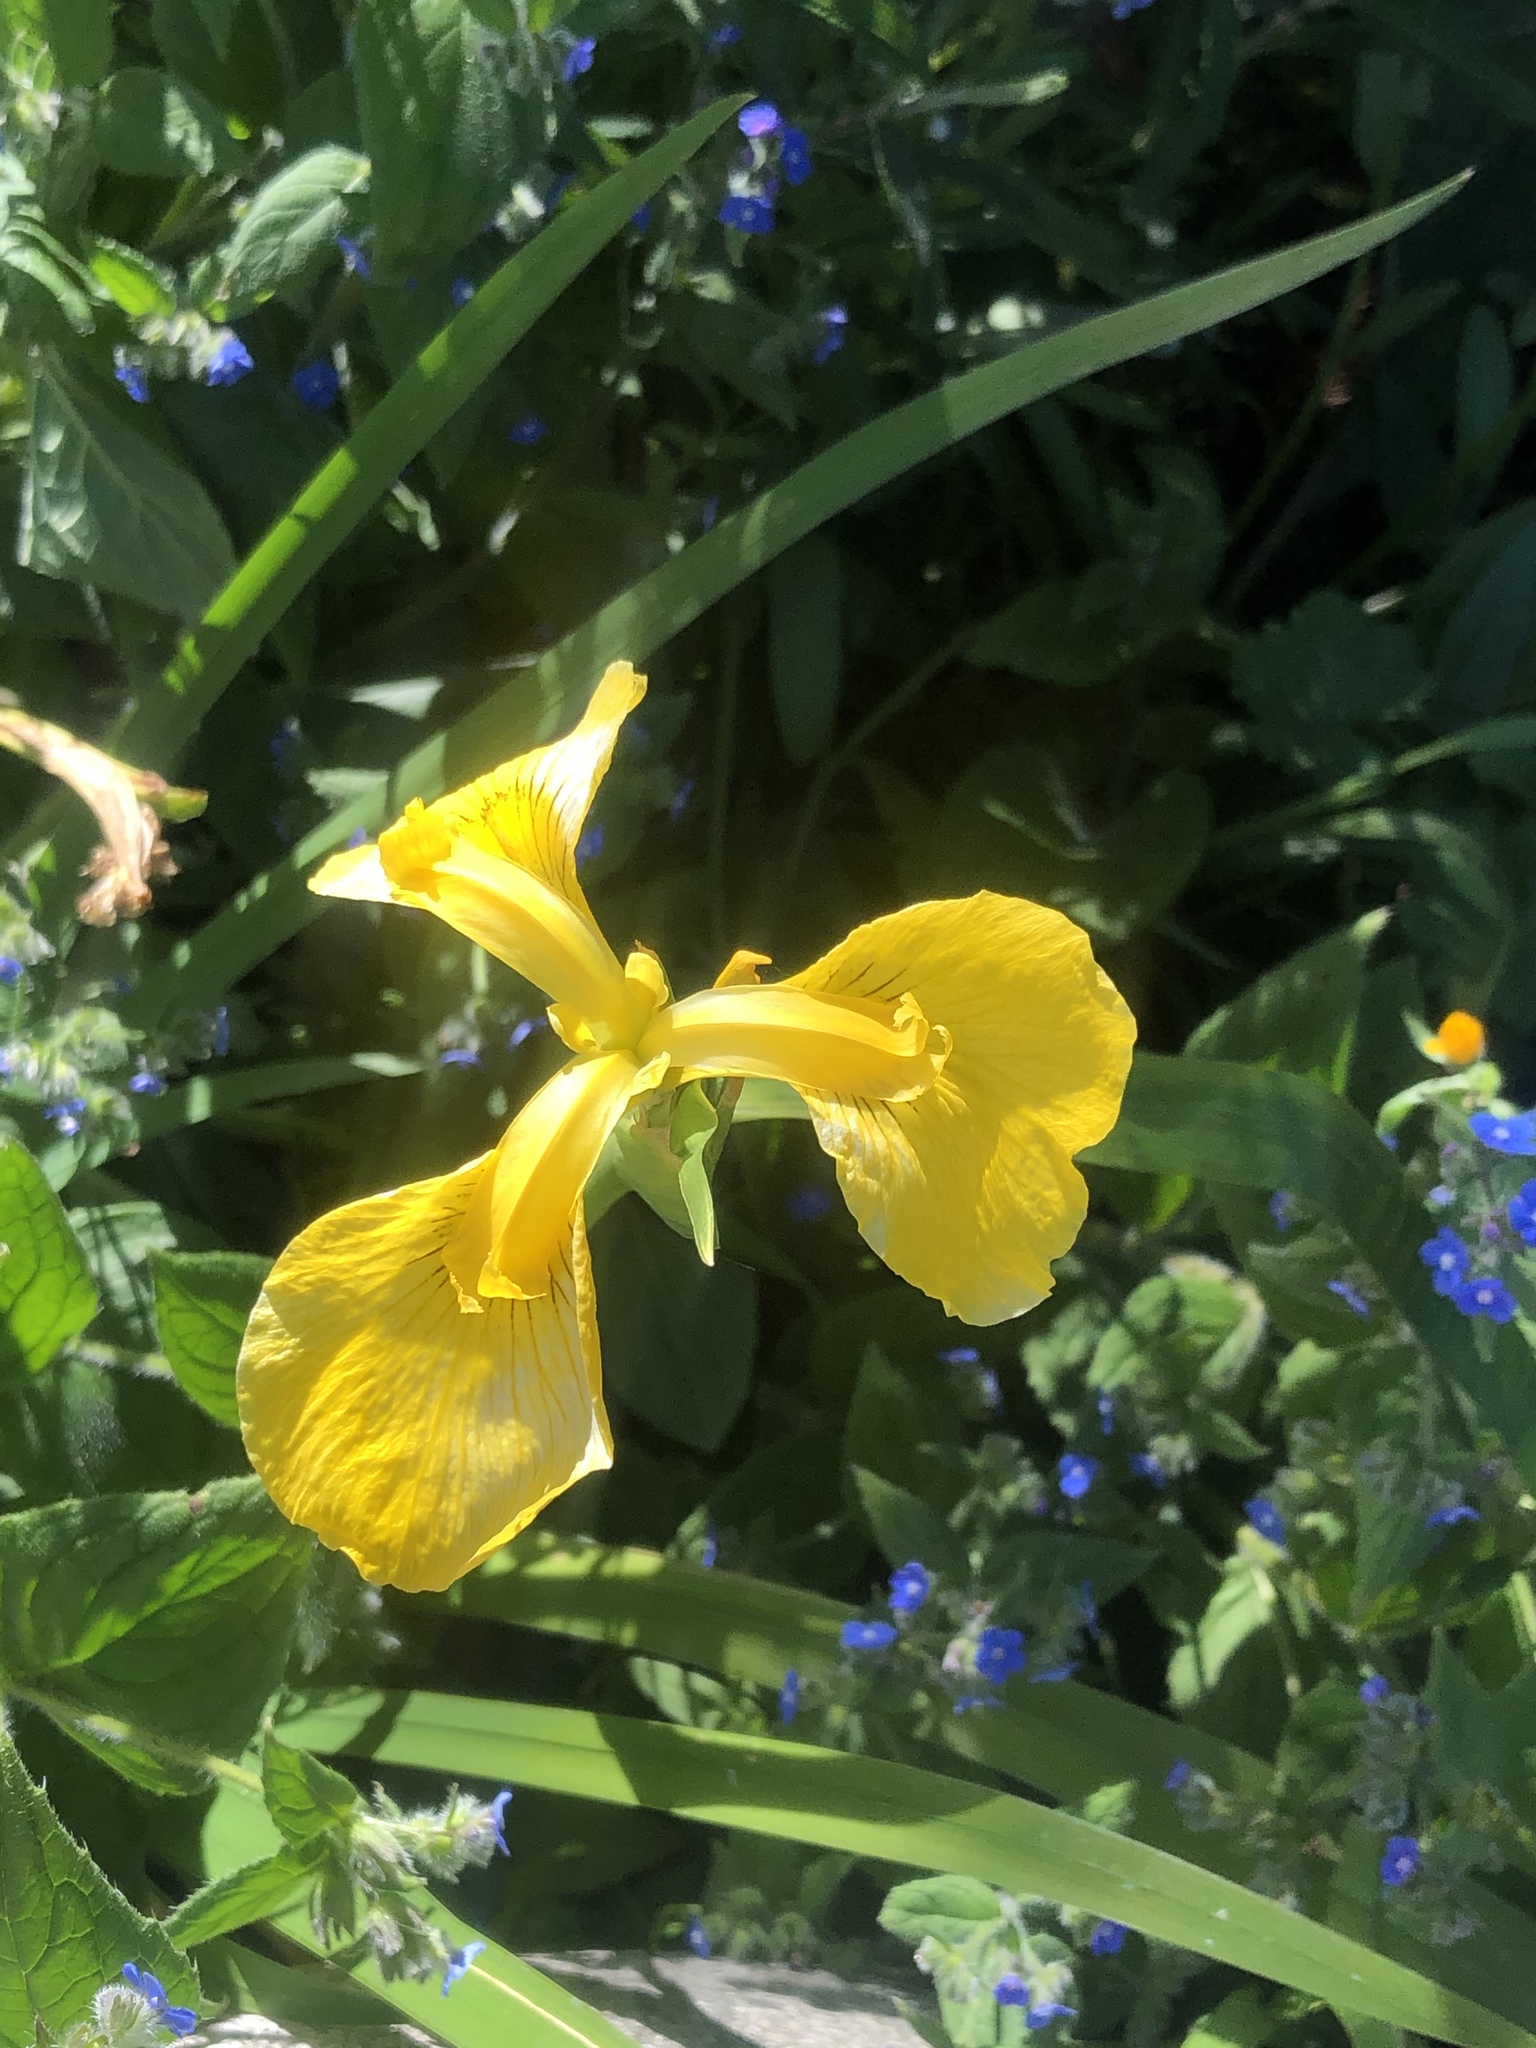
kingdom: Plantae
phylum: Tracheophyta
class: Liliopsida
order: Asparagales
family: Iridaceae
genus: Iris
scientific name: Iris pseudacorus
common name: Yellow flag
